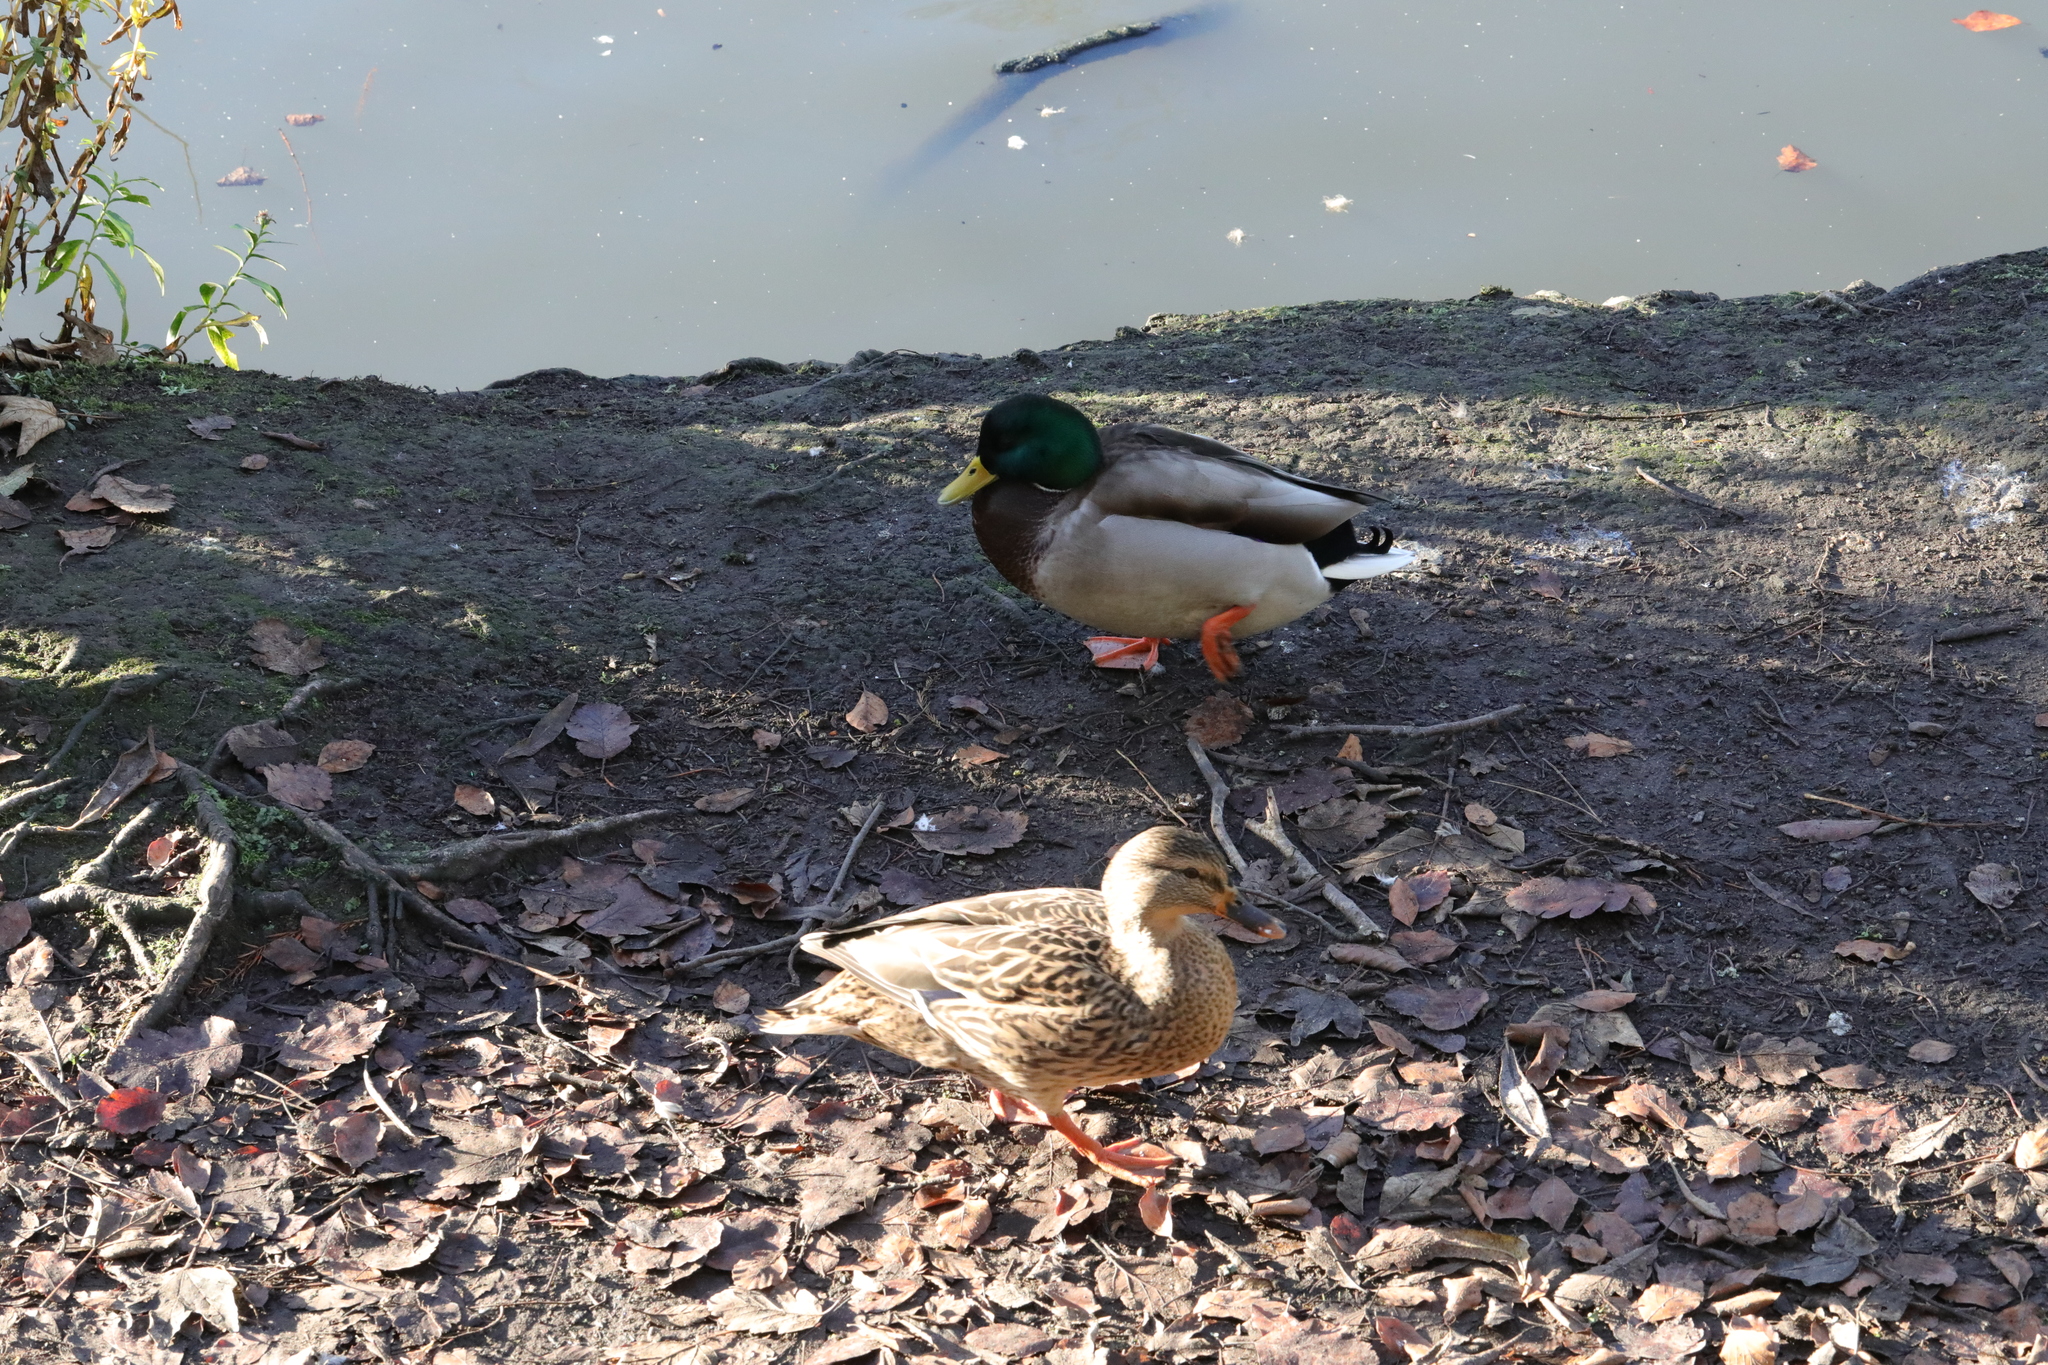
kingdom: Animalia
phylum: Chordata
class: Aves
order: Anseriformes
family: Anatidae
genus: Anas
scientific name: Anas platyrhynchos
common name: Mallard
